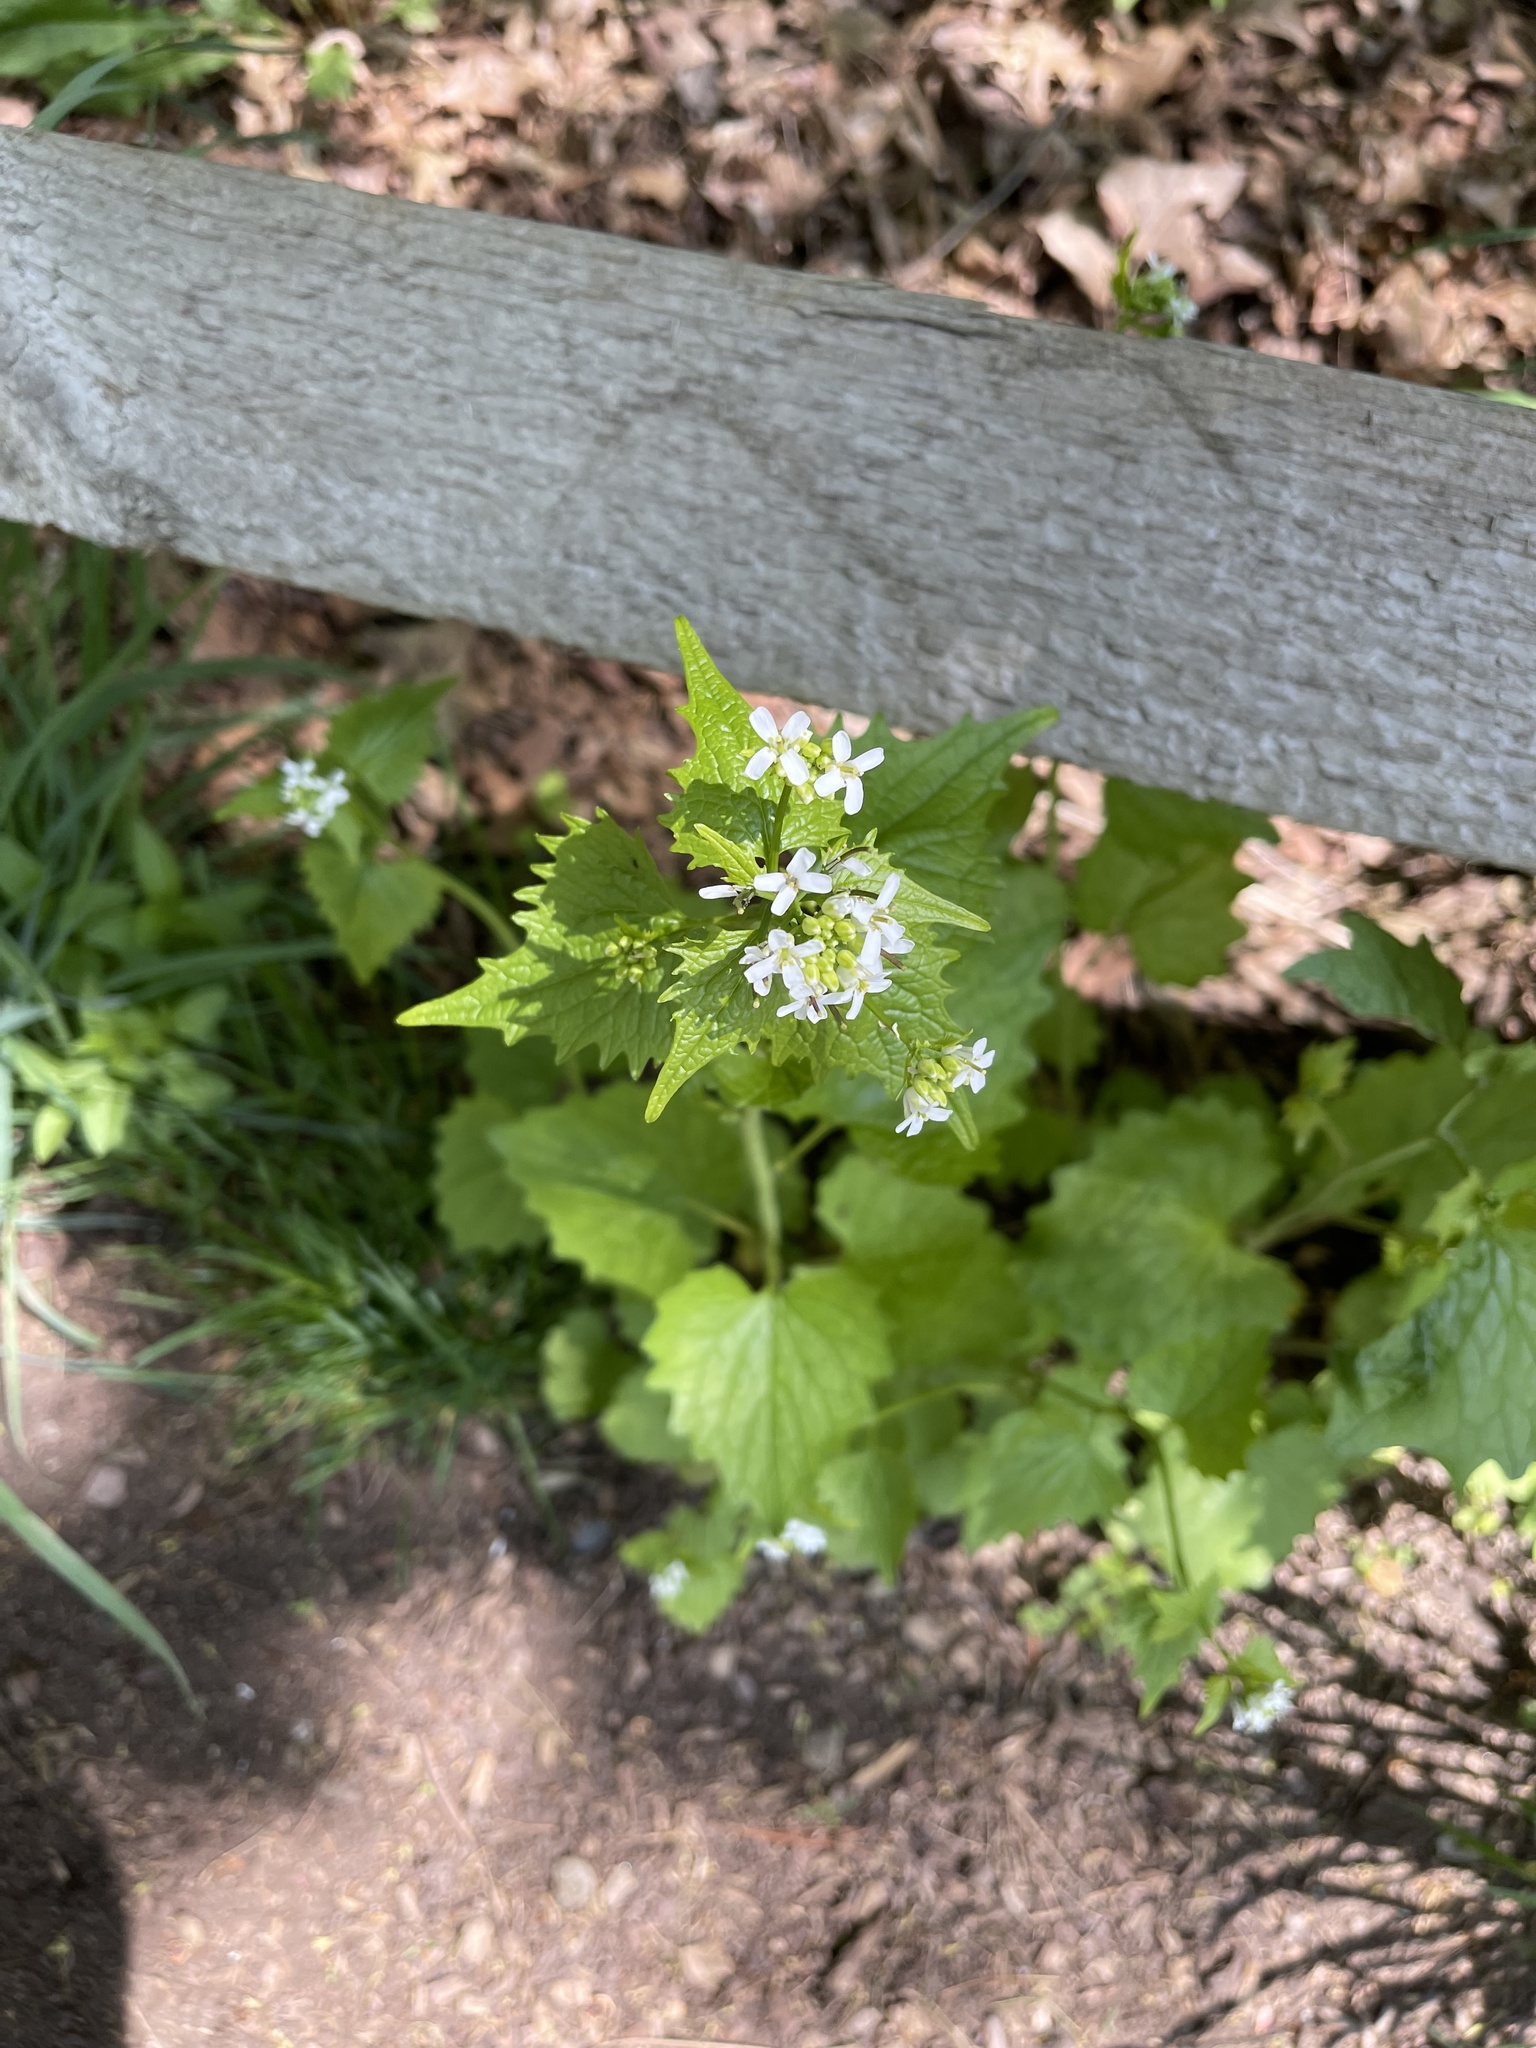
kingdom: Plantae
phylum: Tracheophyta
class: Magnoliopsida
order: Brassicales
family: Brassicaceae
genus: Alliaria
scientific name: Alliaria petiolata
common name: Garlic mustard
